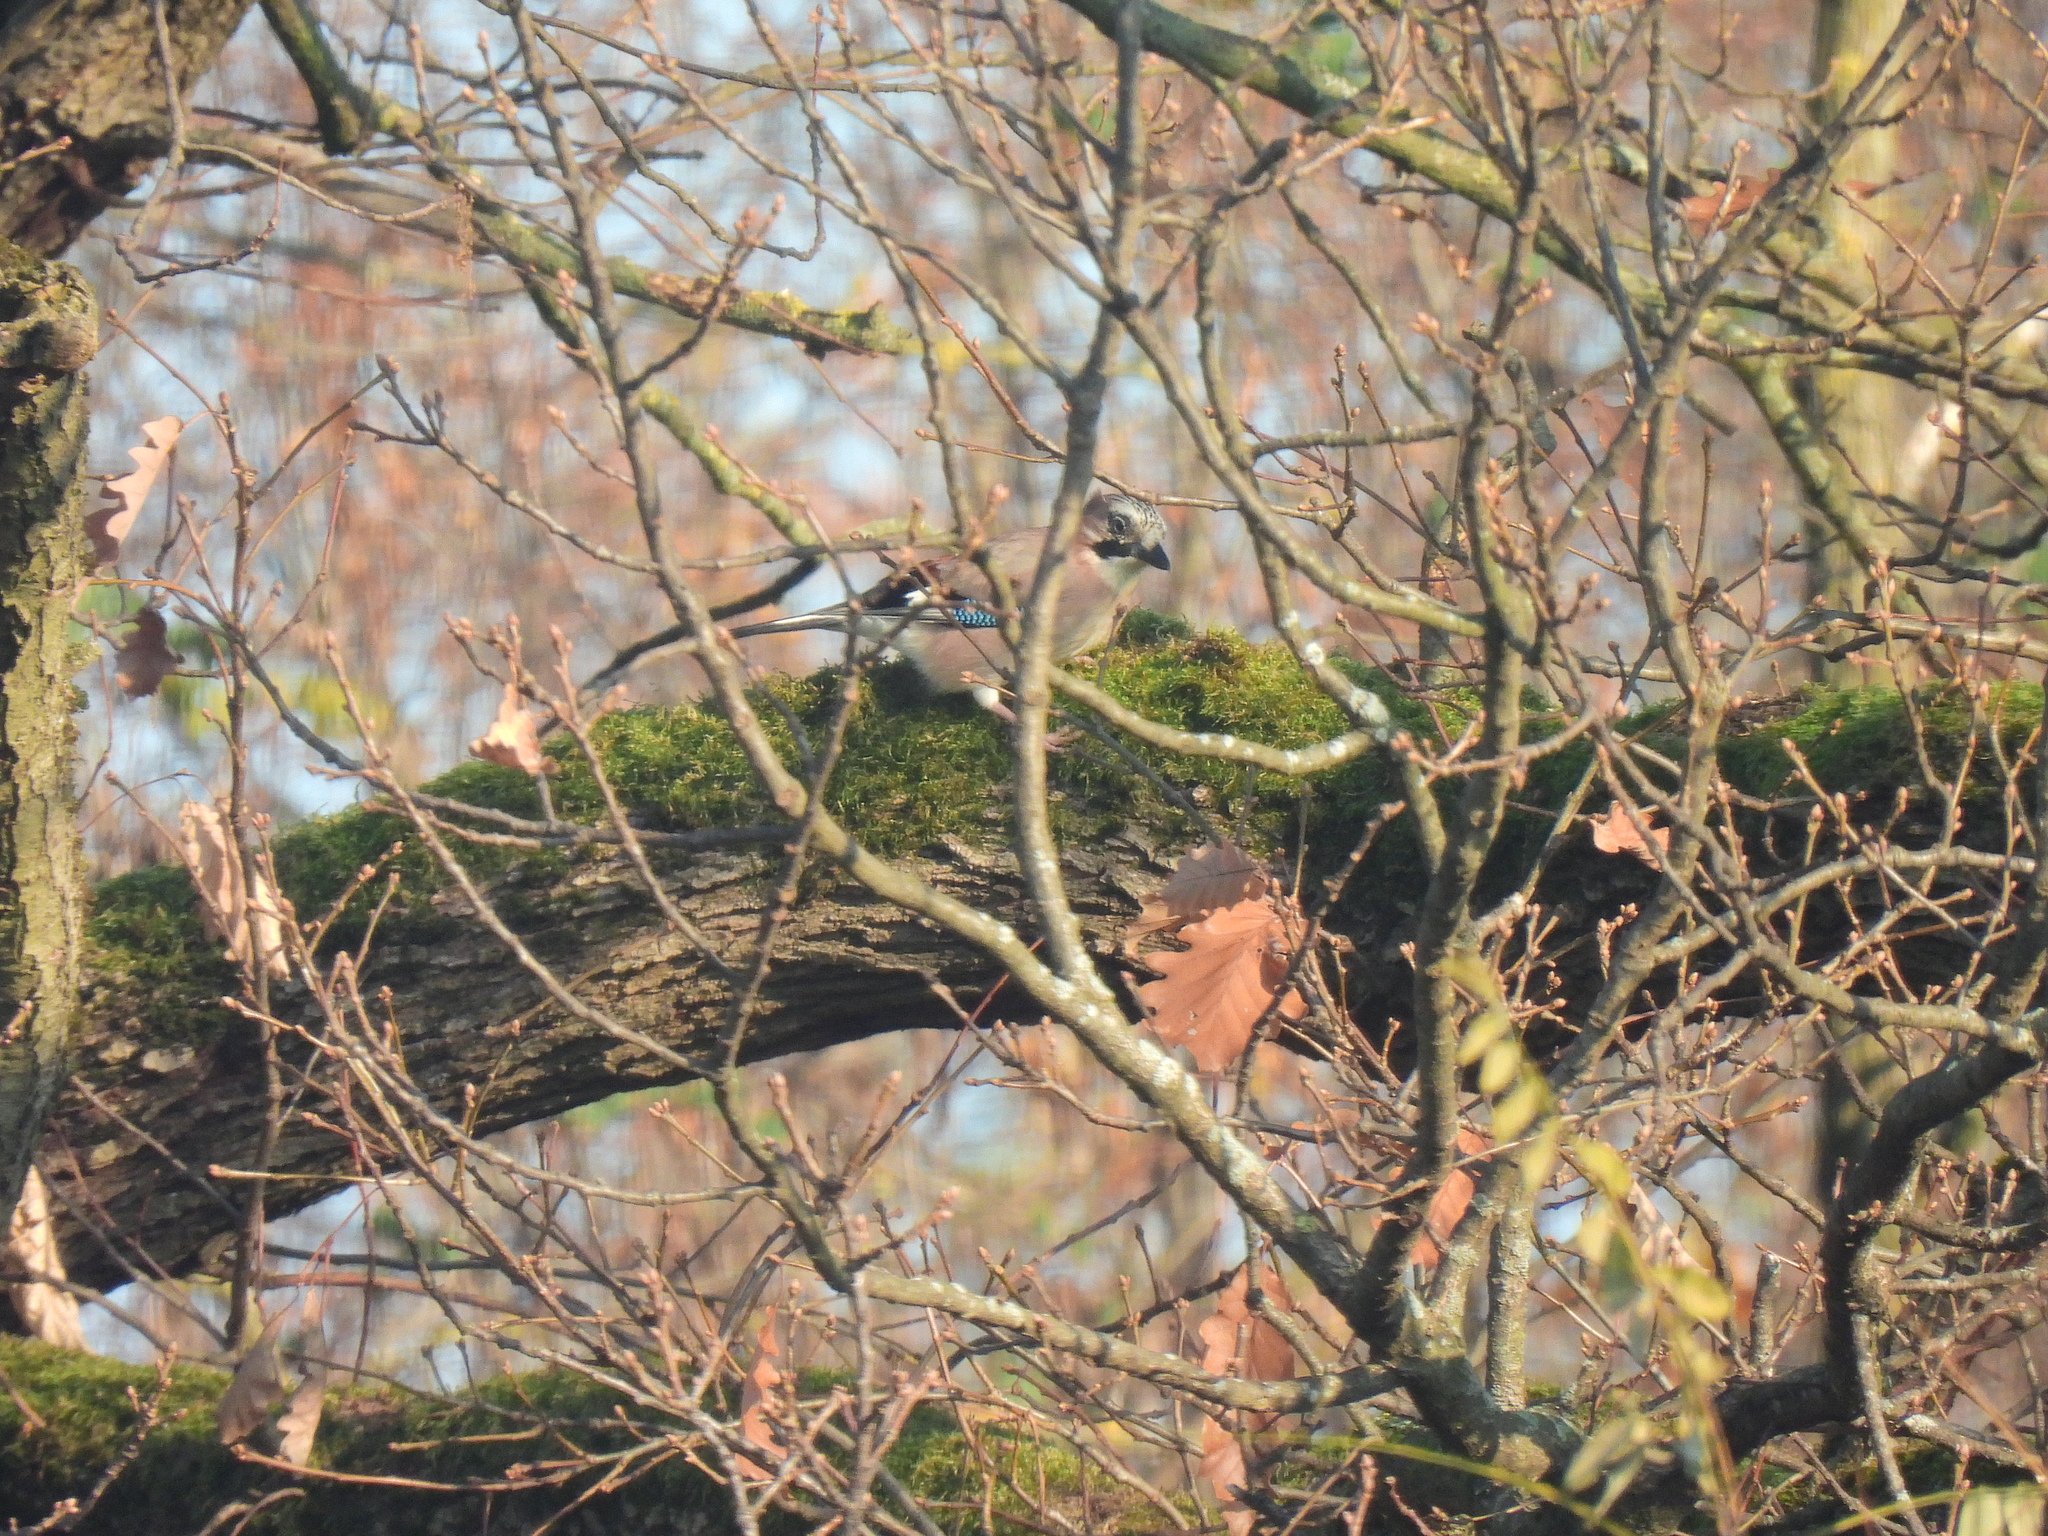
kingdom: Animalia
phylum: Chordata
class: Aves
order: Passeriformes
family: Corvidae
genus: Garrulus
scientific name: Garrulus glandarius
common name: Eurasian jay
